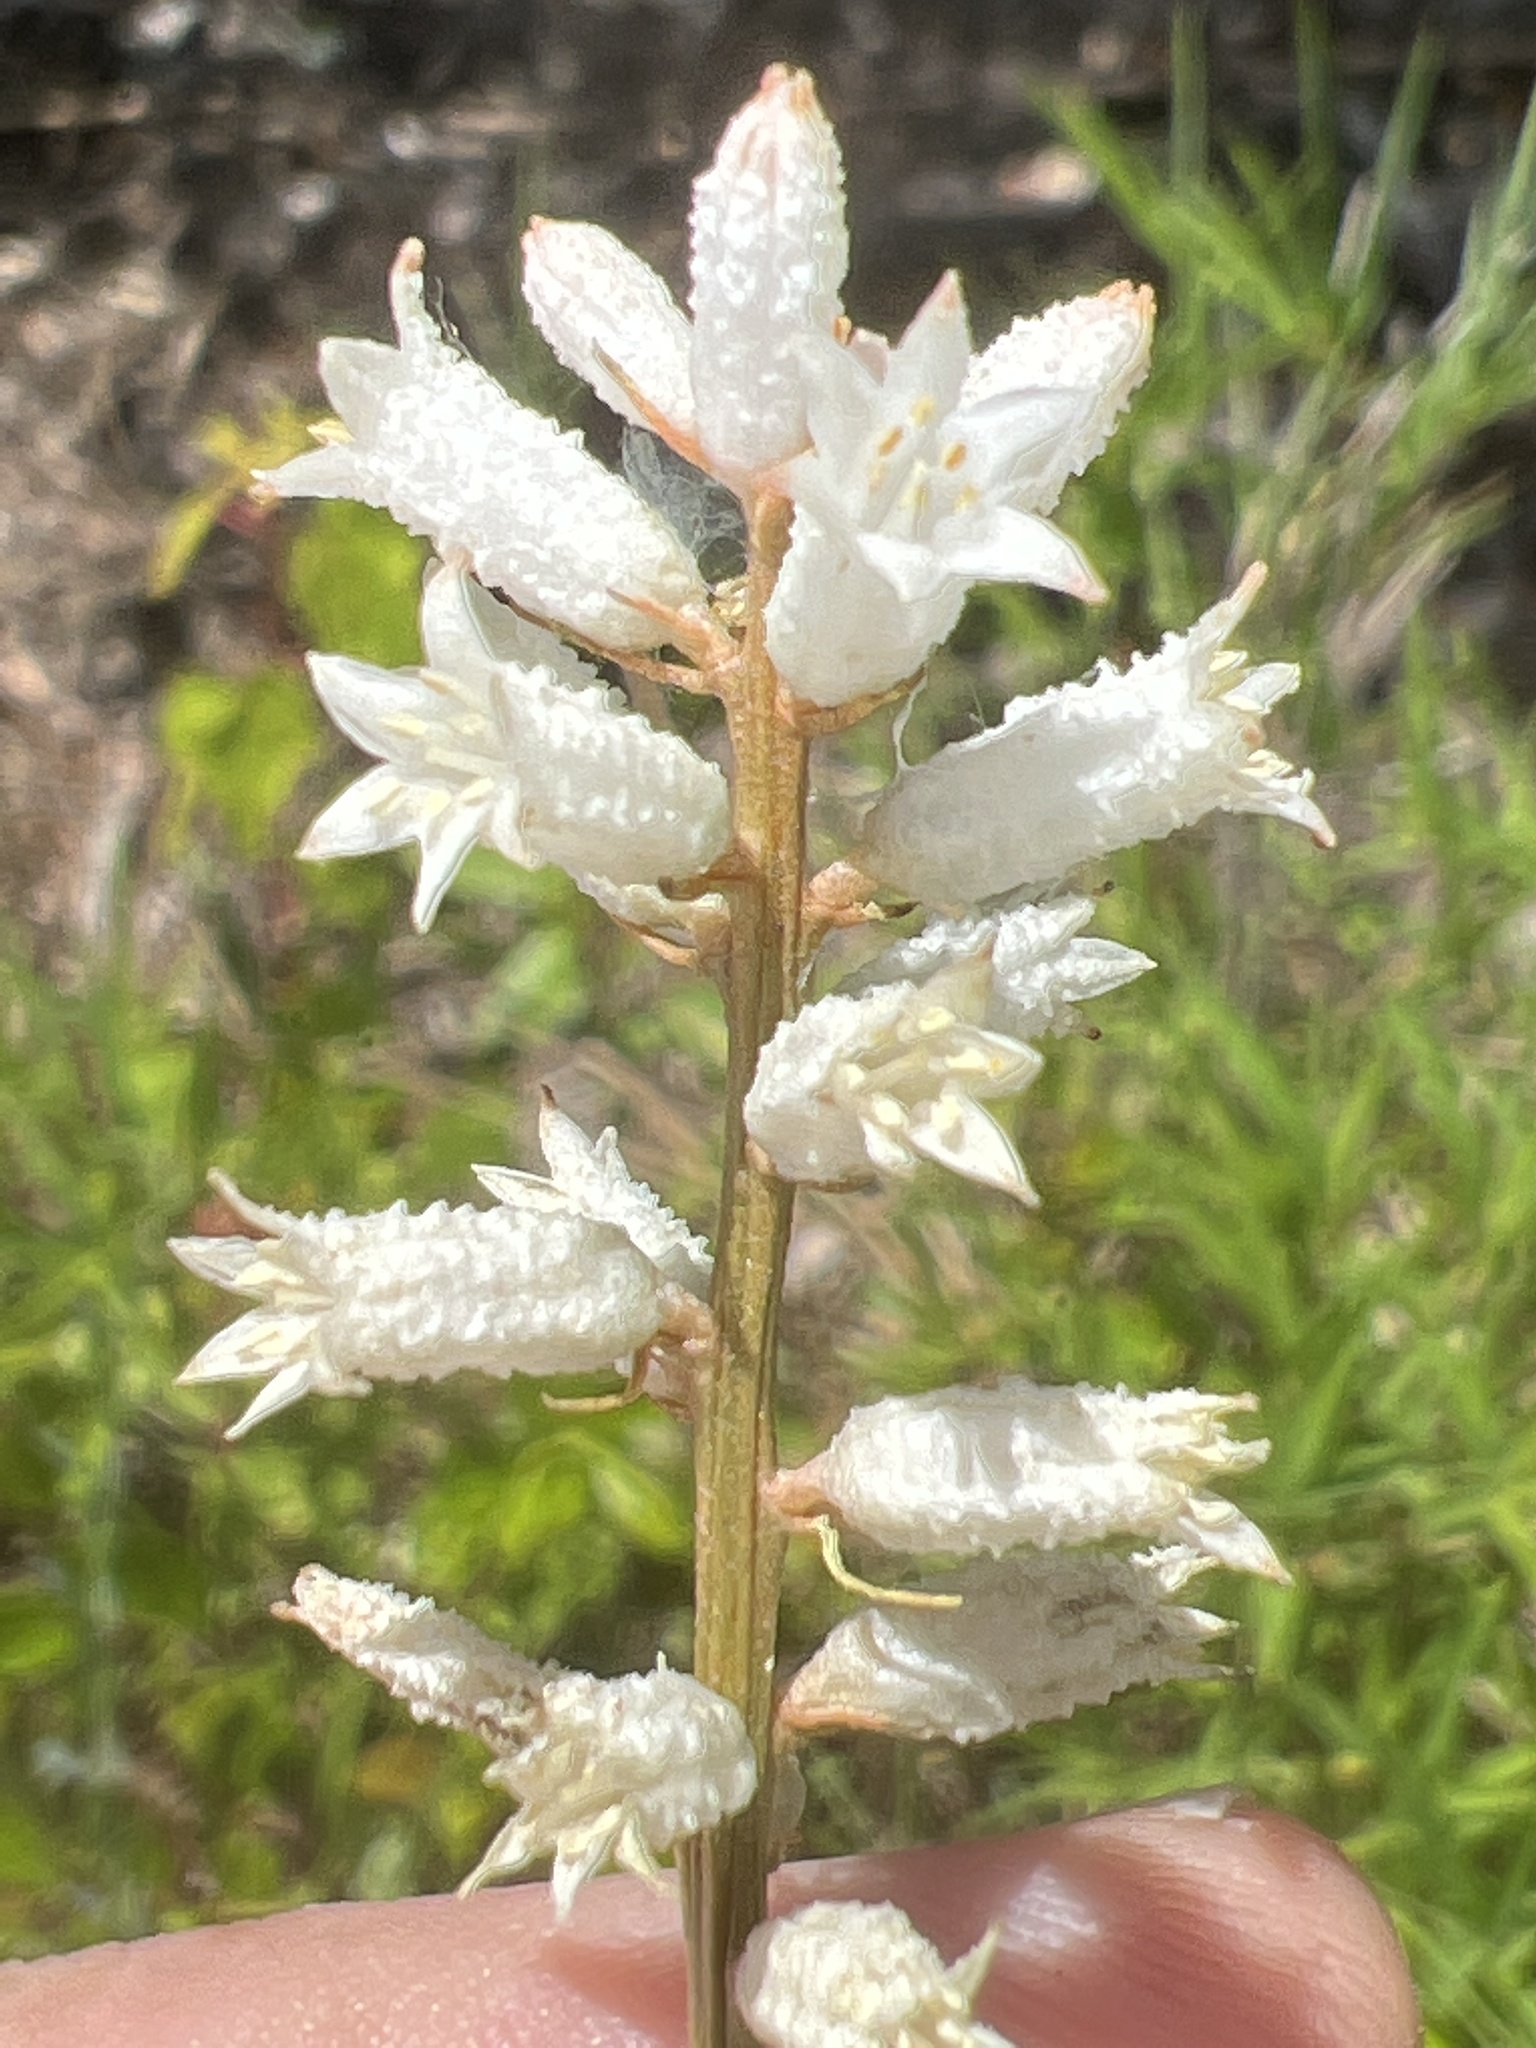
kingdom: Plantae
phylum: Tracheophyta
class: Liliopsida
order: Dioscoreales
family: Nartheciaceae
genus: Aletris
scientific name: Aletris farinosa
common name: Colicroot
